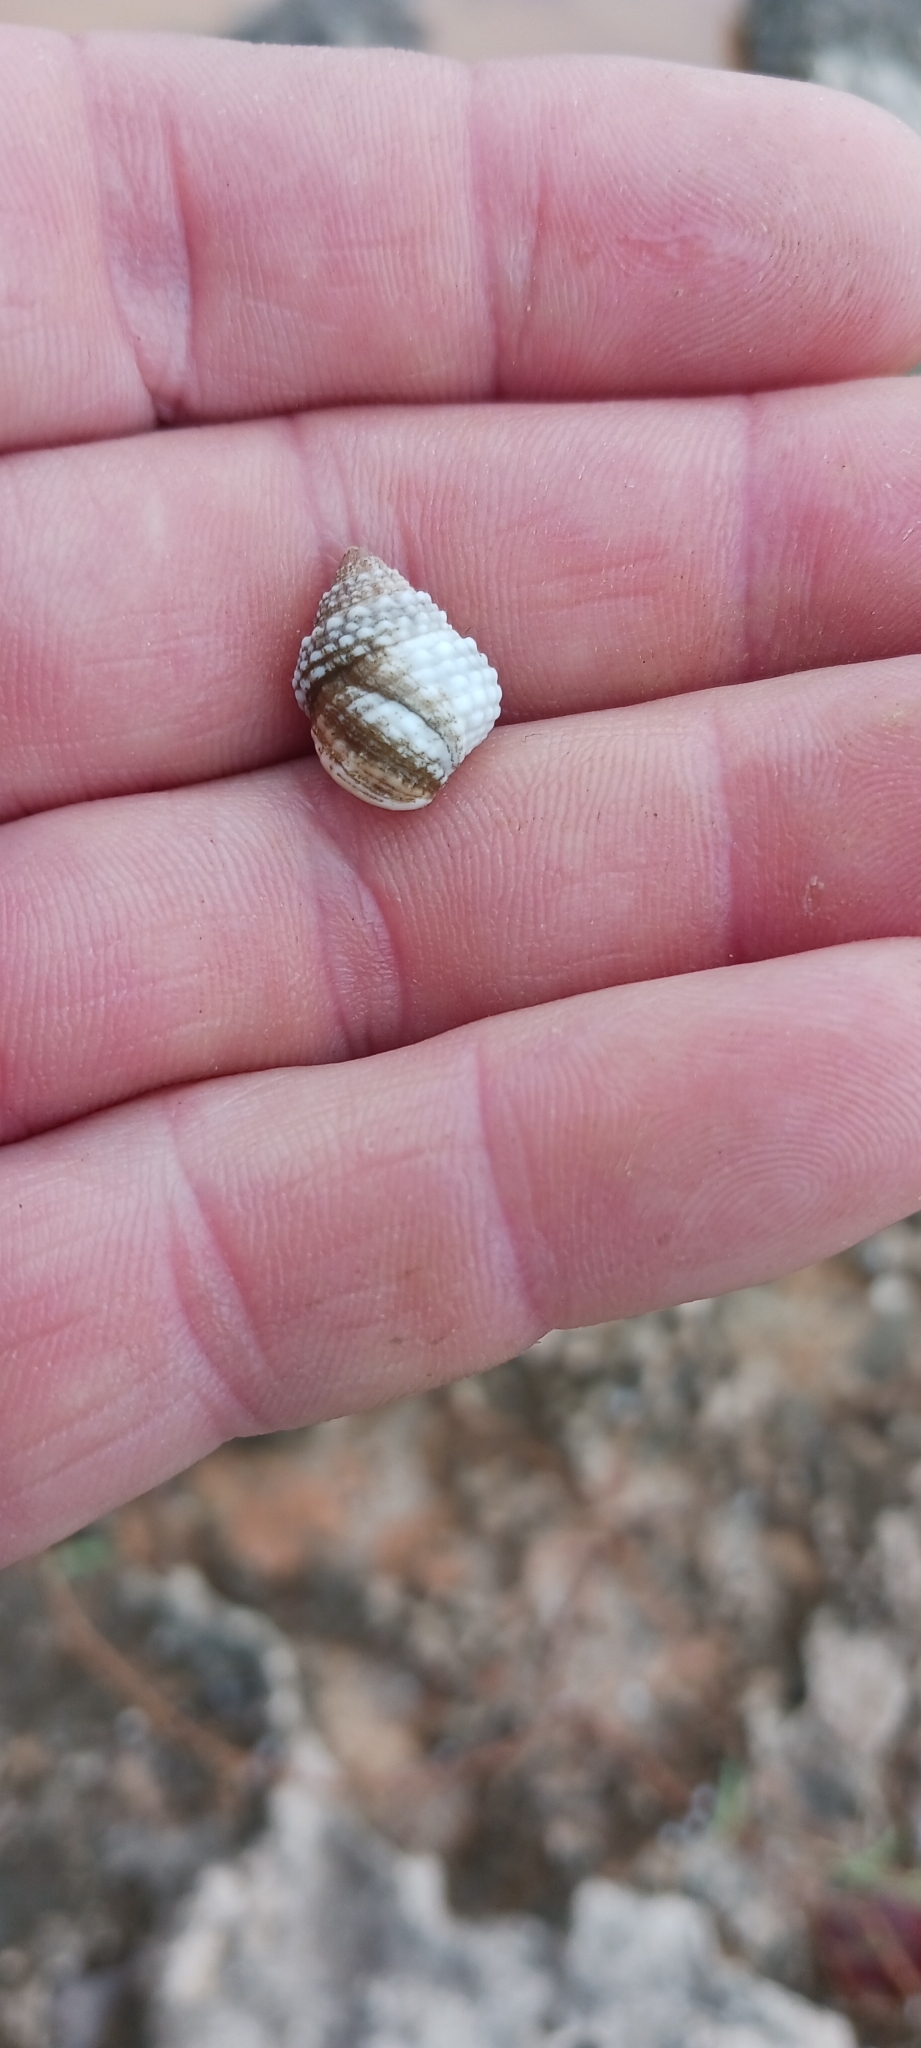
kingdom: Animalia
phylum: Mollusca
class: Gastropoda
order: Littorinimorpha
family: Littorinidae
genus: Cenchritis
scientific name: Cenchritis muricatus
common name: Beaded periwinkle
